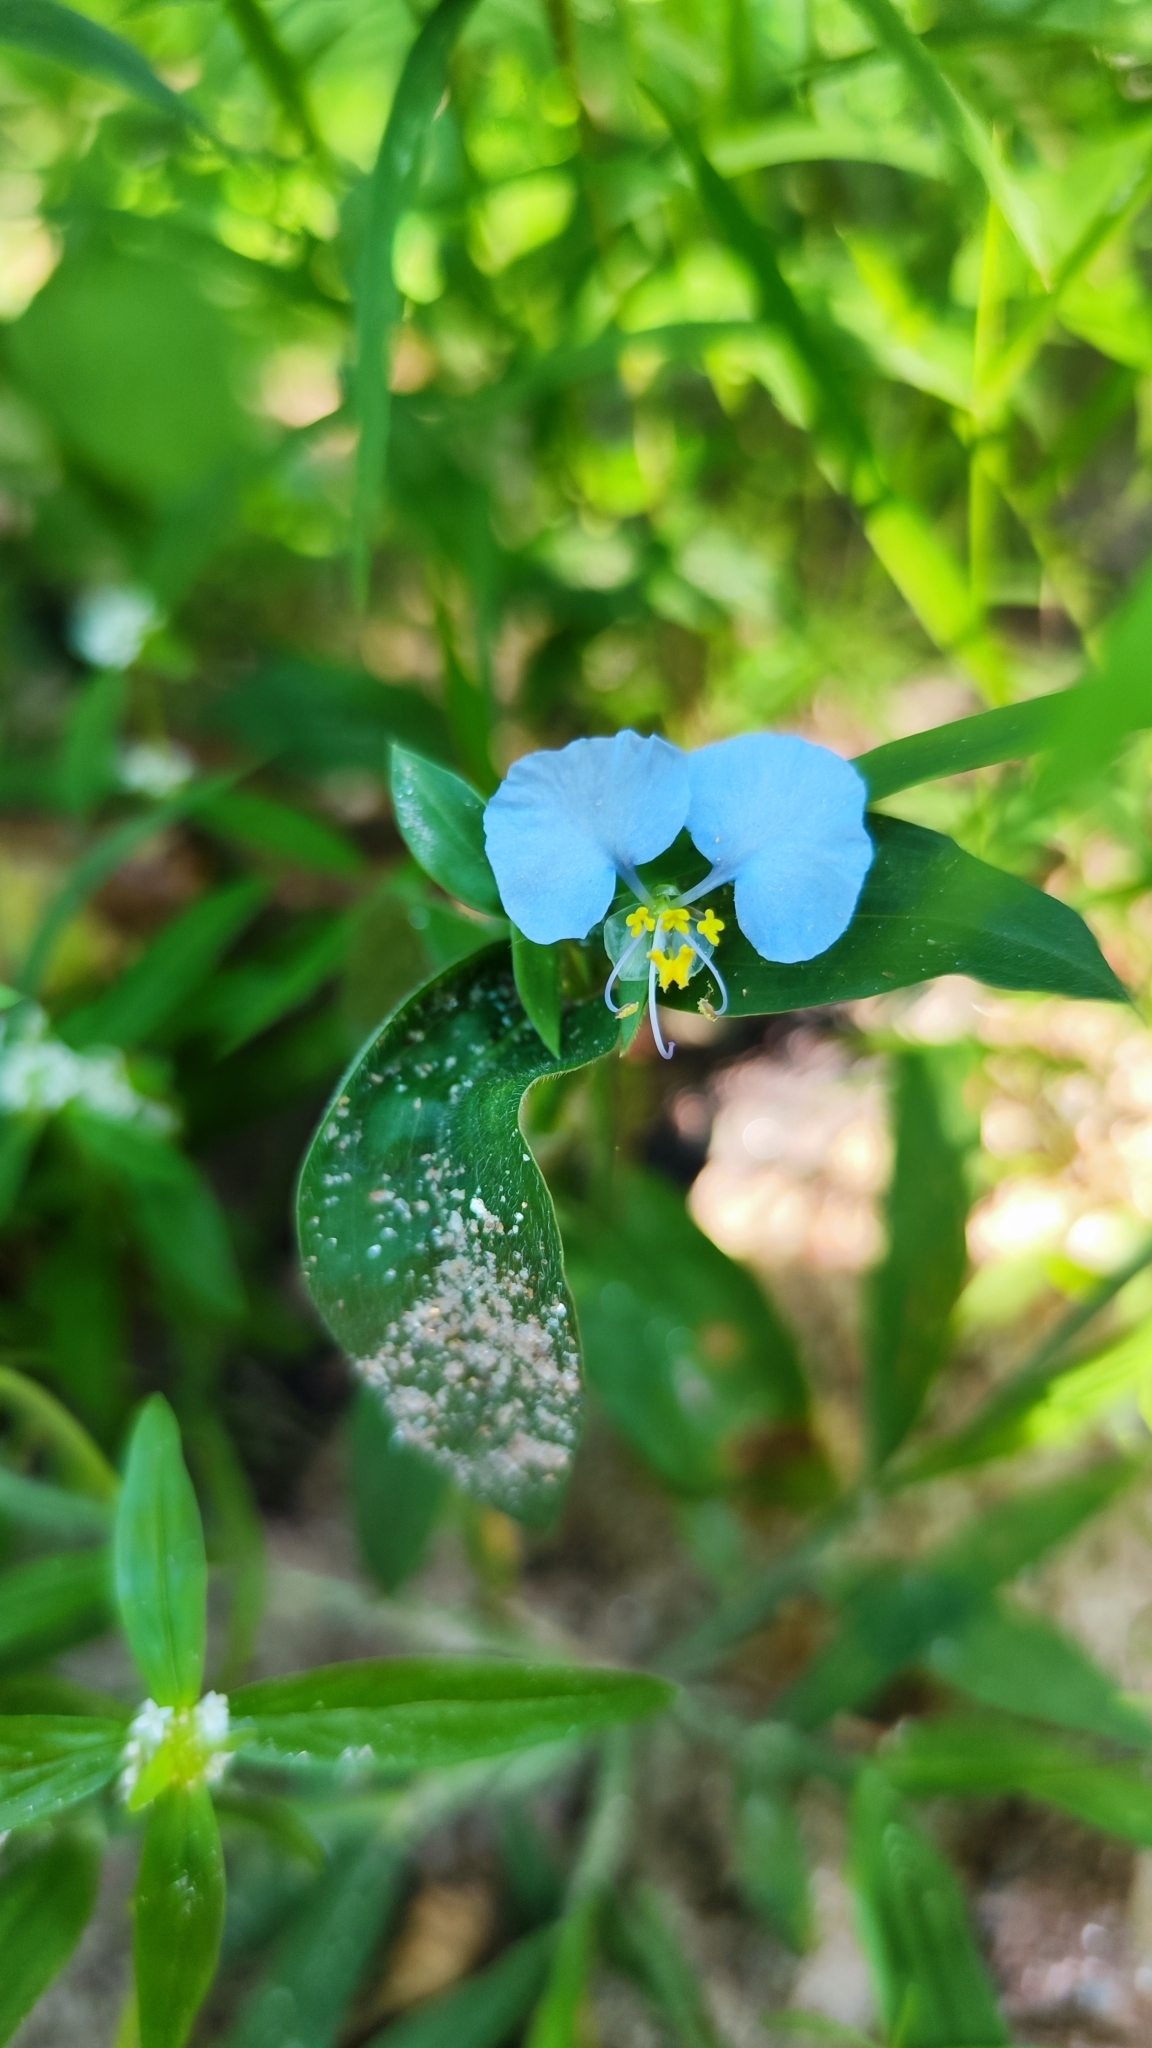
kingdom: Plantae
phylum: Tracheophyta
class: Liliopsida
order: Commelinales
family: Commelinaceae
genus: Commelina
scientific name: Commelina erecta
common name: Blousel blommetjie
